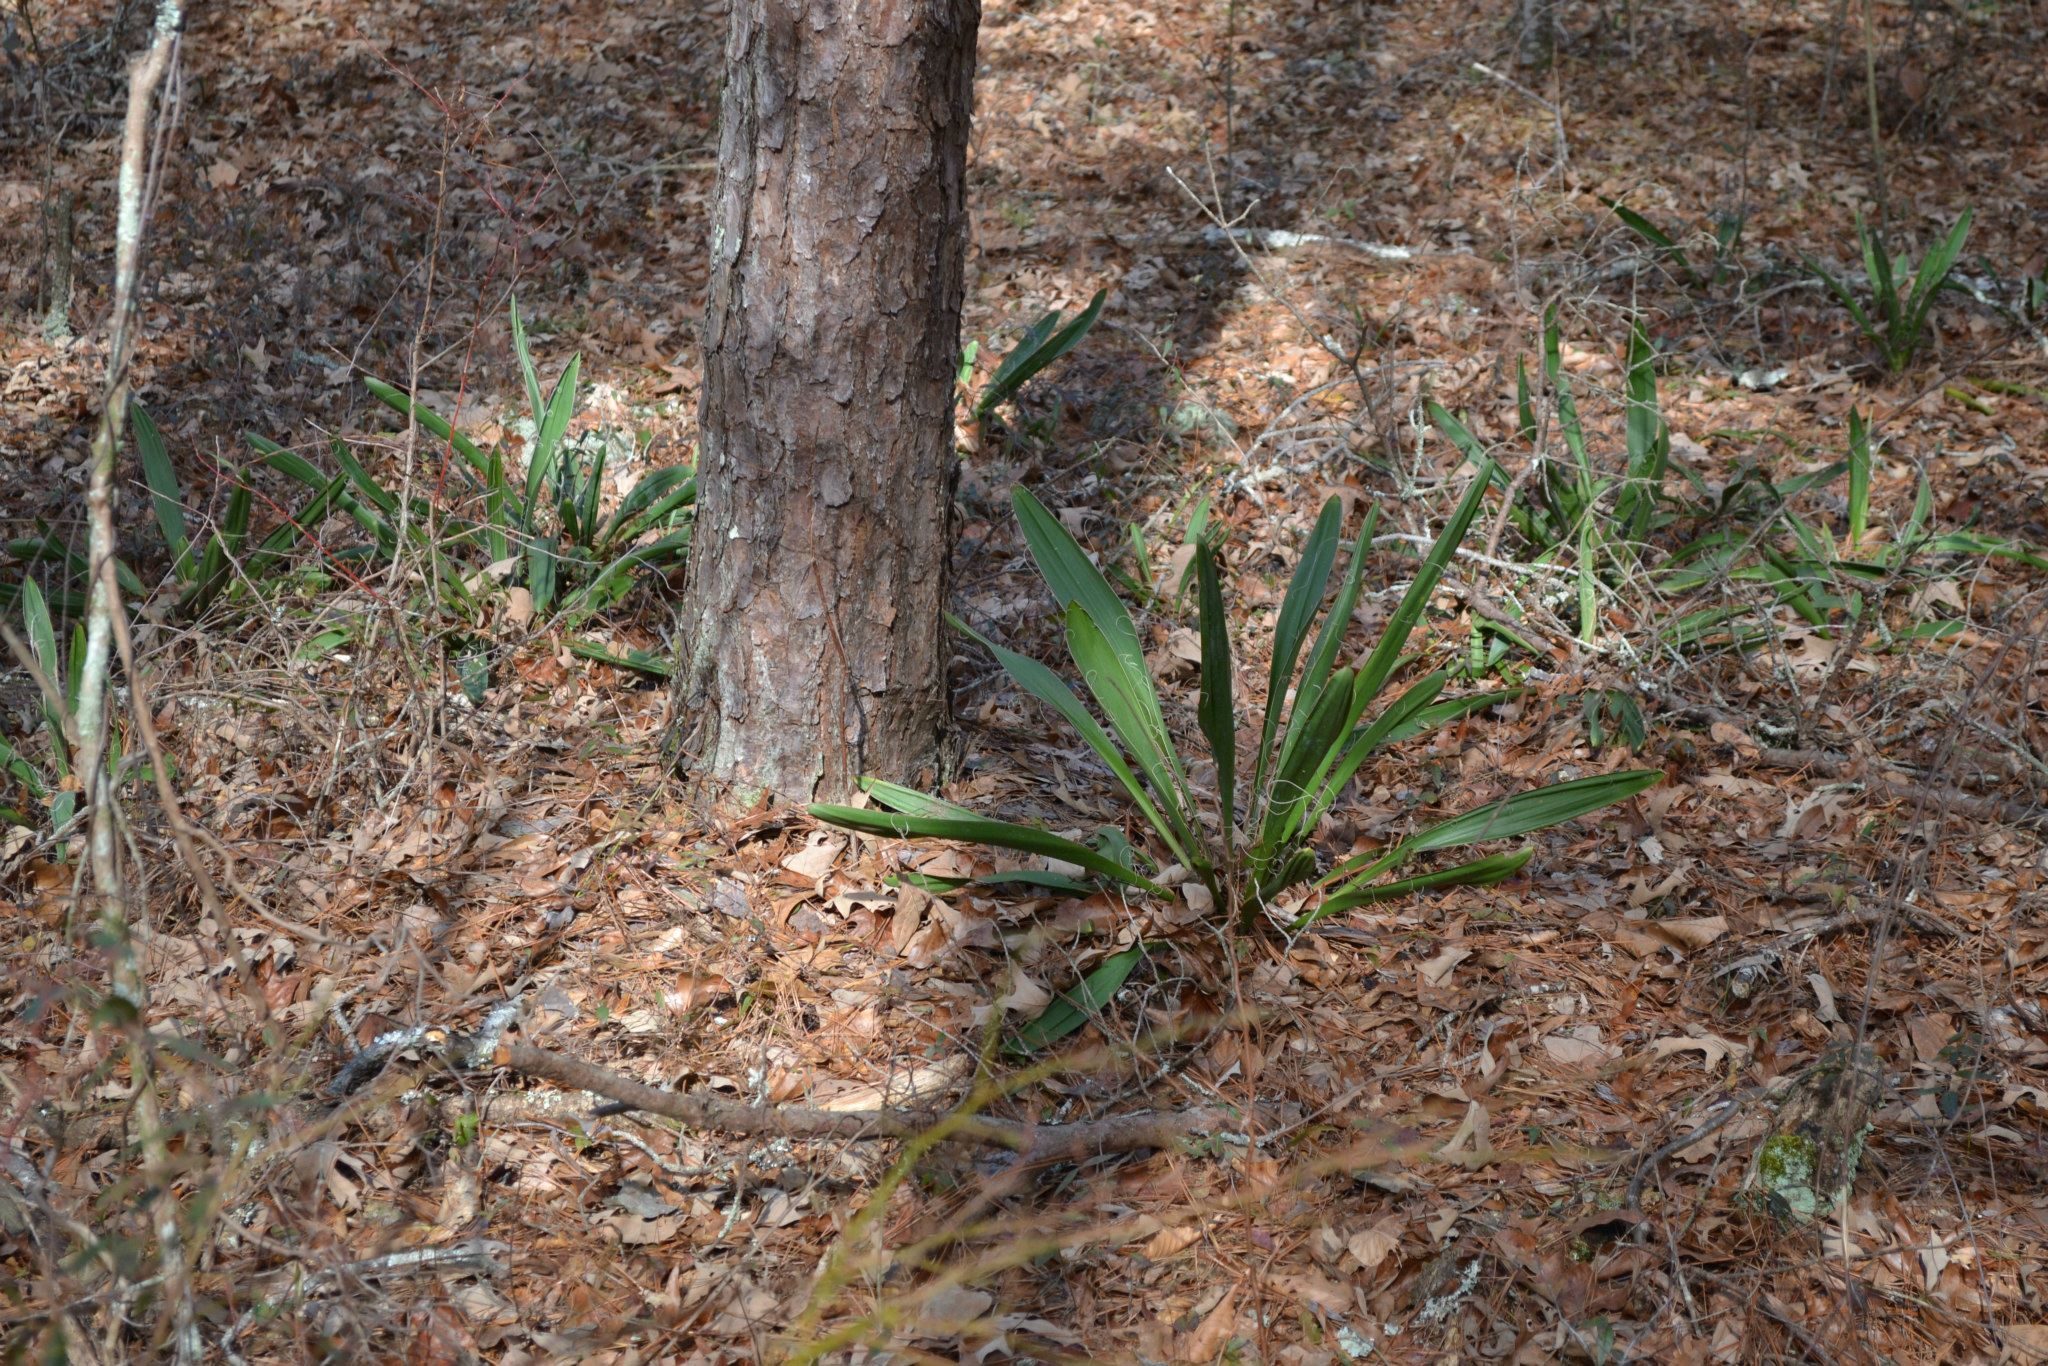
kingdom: Plantae
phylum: Tracheophyta
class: Liliopsida
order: Asparagales
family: Asparagaceae
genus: Yucca
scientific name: Yucca filamentosa
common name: Adam's-needle
